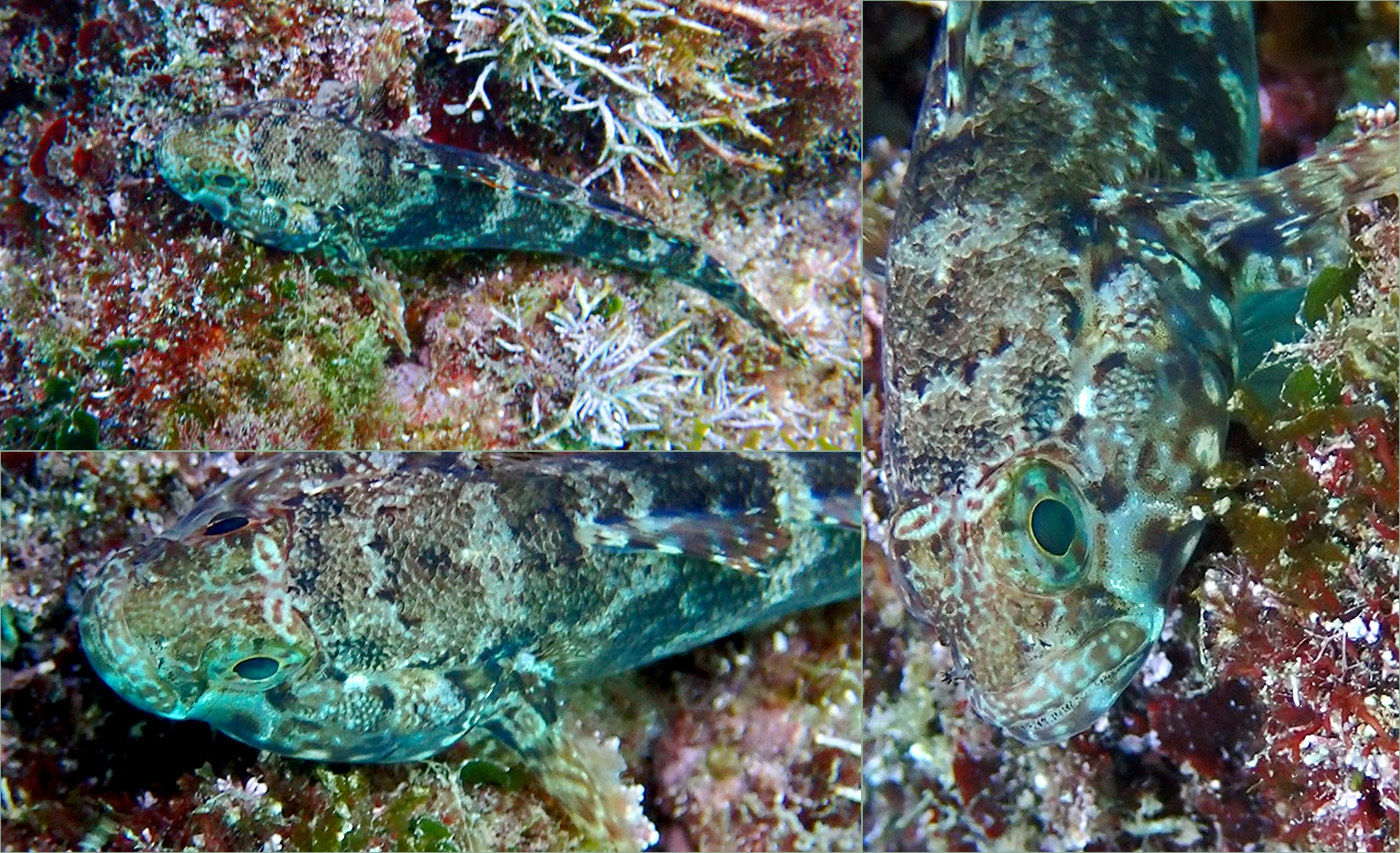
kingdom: Animalia
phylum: Chordata
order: Perciformes
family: Gobiidae
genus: Gobius
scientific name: Gobius paganellus
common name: Rock goby
